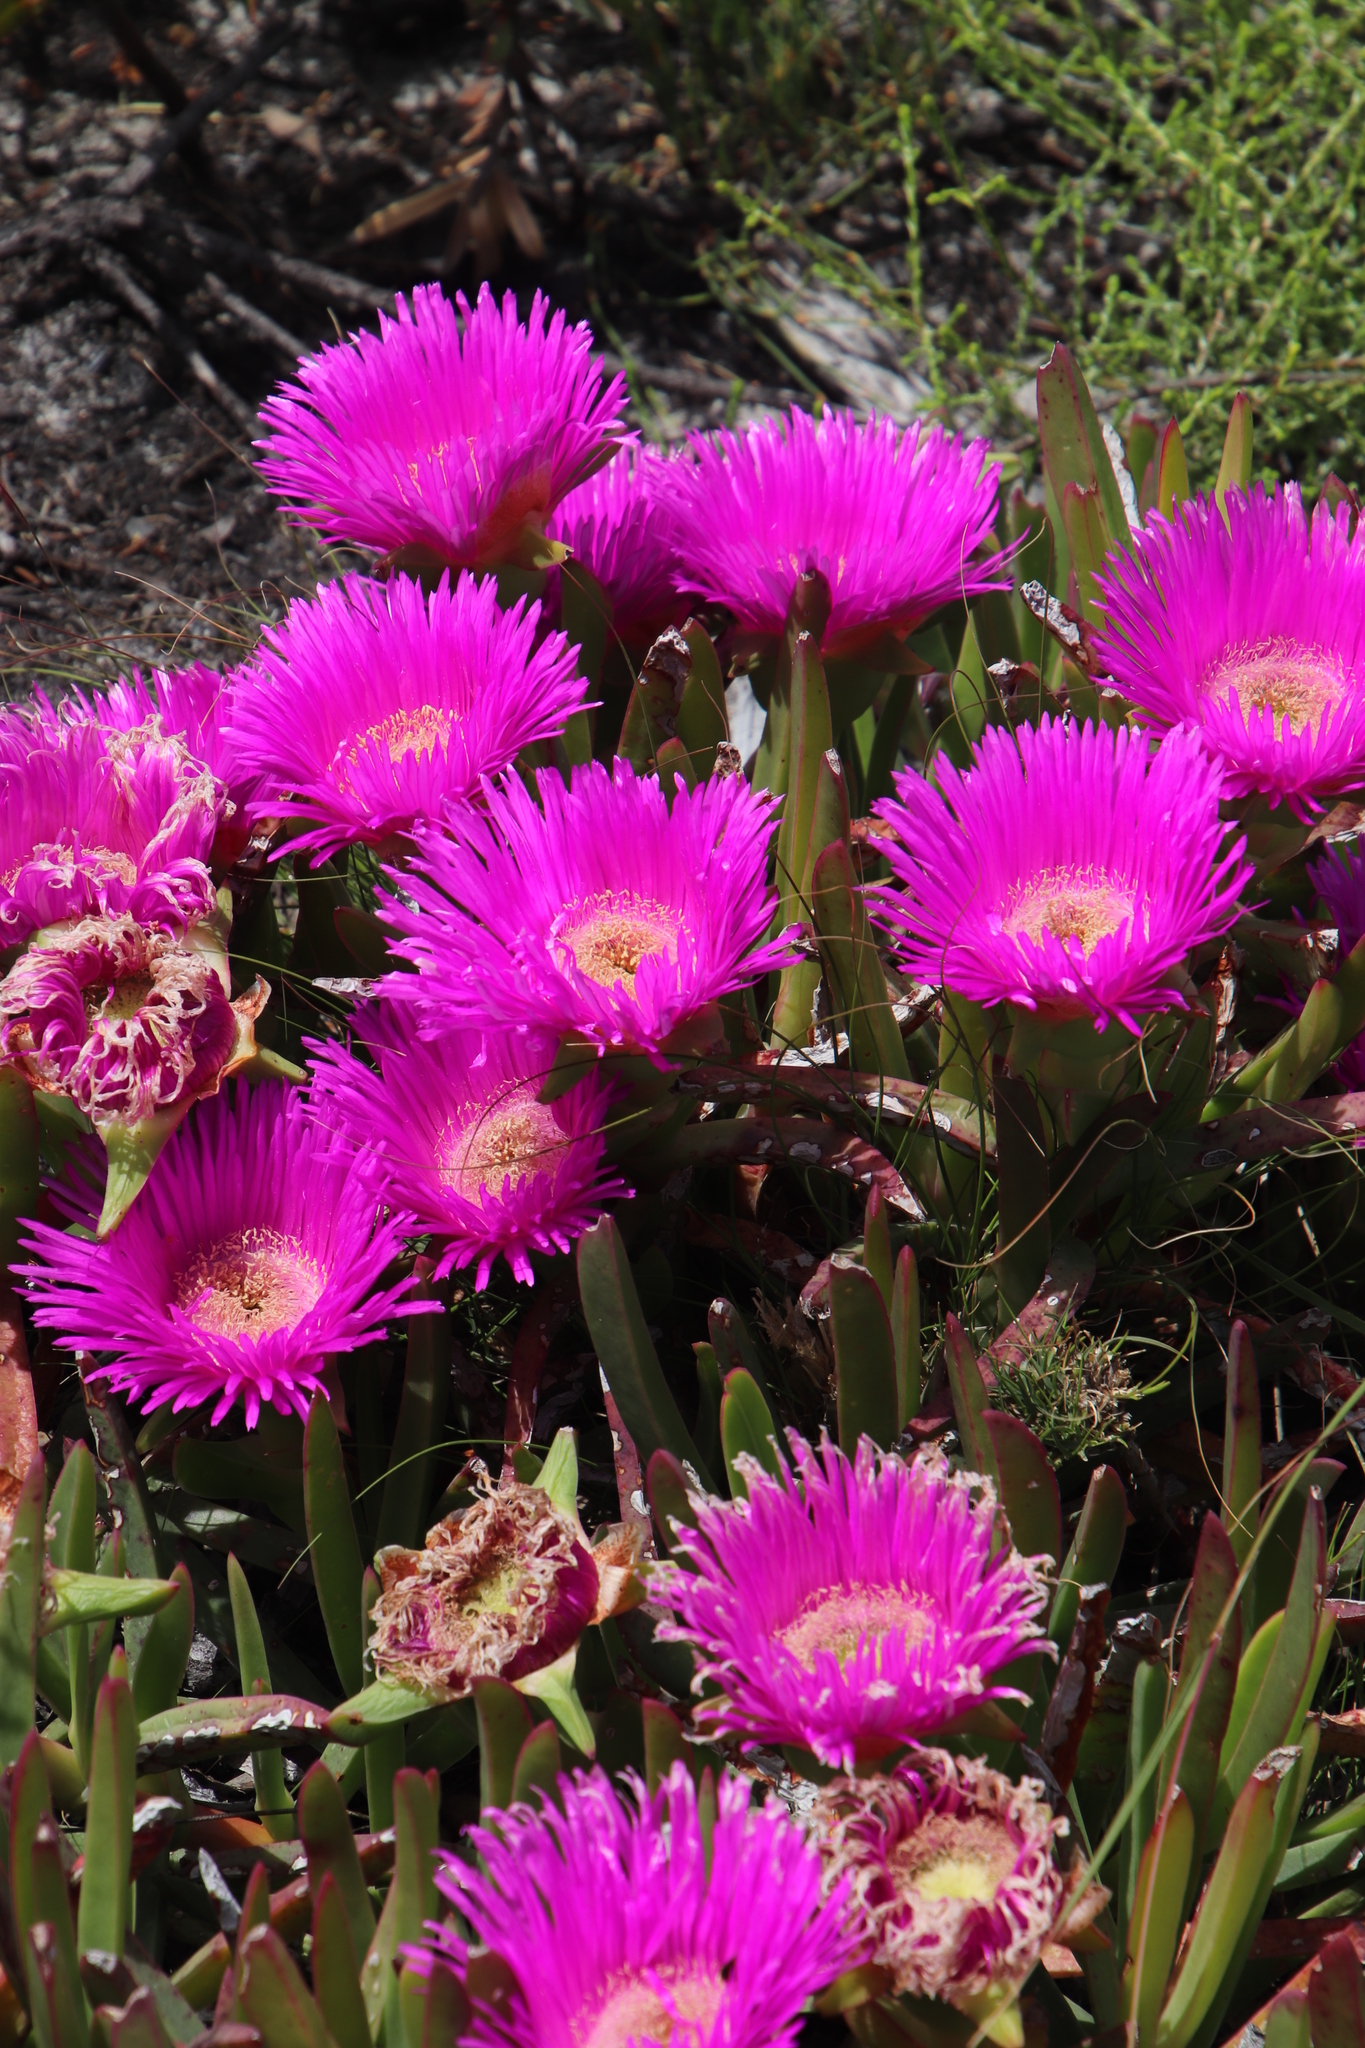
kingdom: Plantae
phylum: Tracheophyta
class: Magnoliopsida
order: Caryophyllales
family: Aizoaceae
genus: Carpobrotus
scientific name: Carpobrotus acinaciformis
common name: Sally-my-handsome
